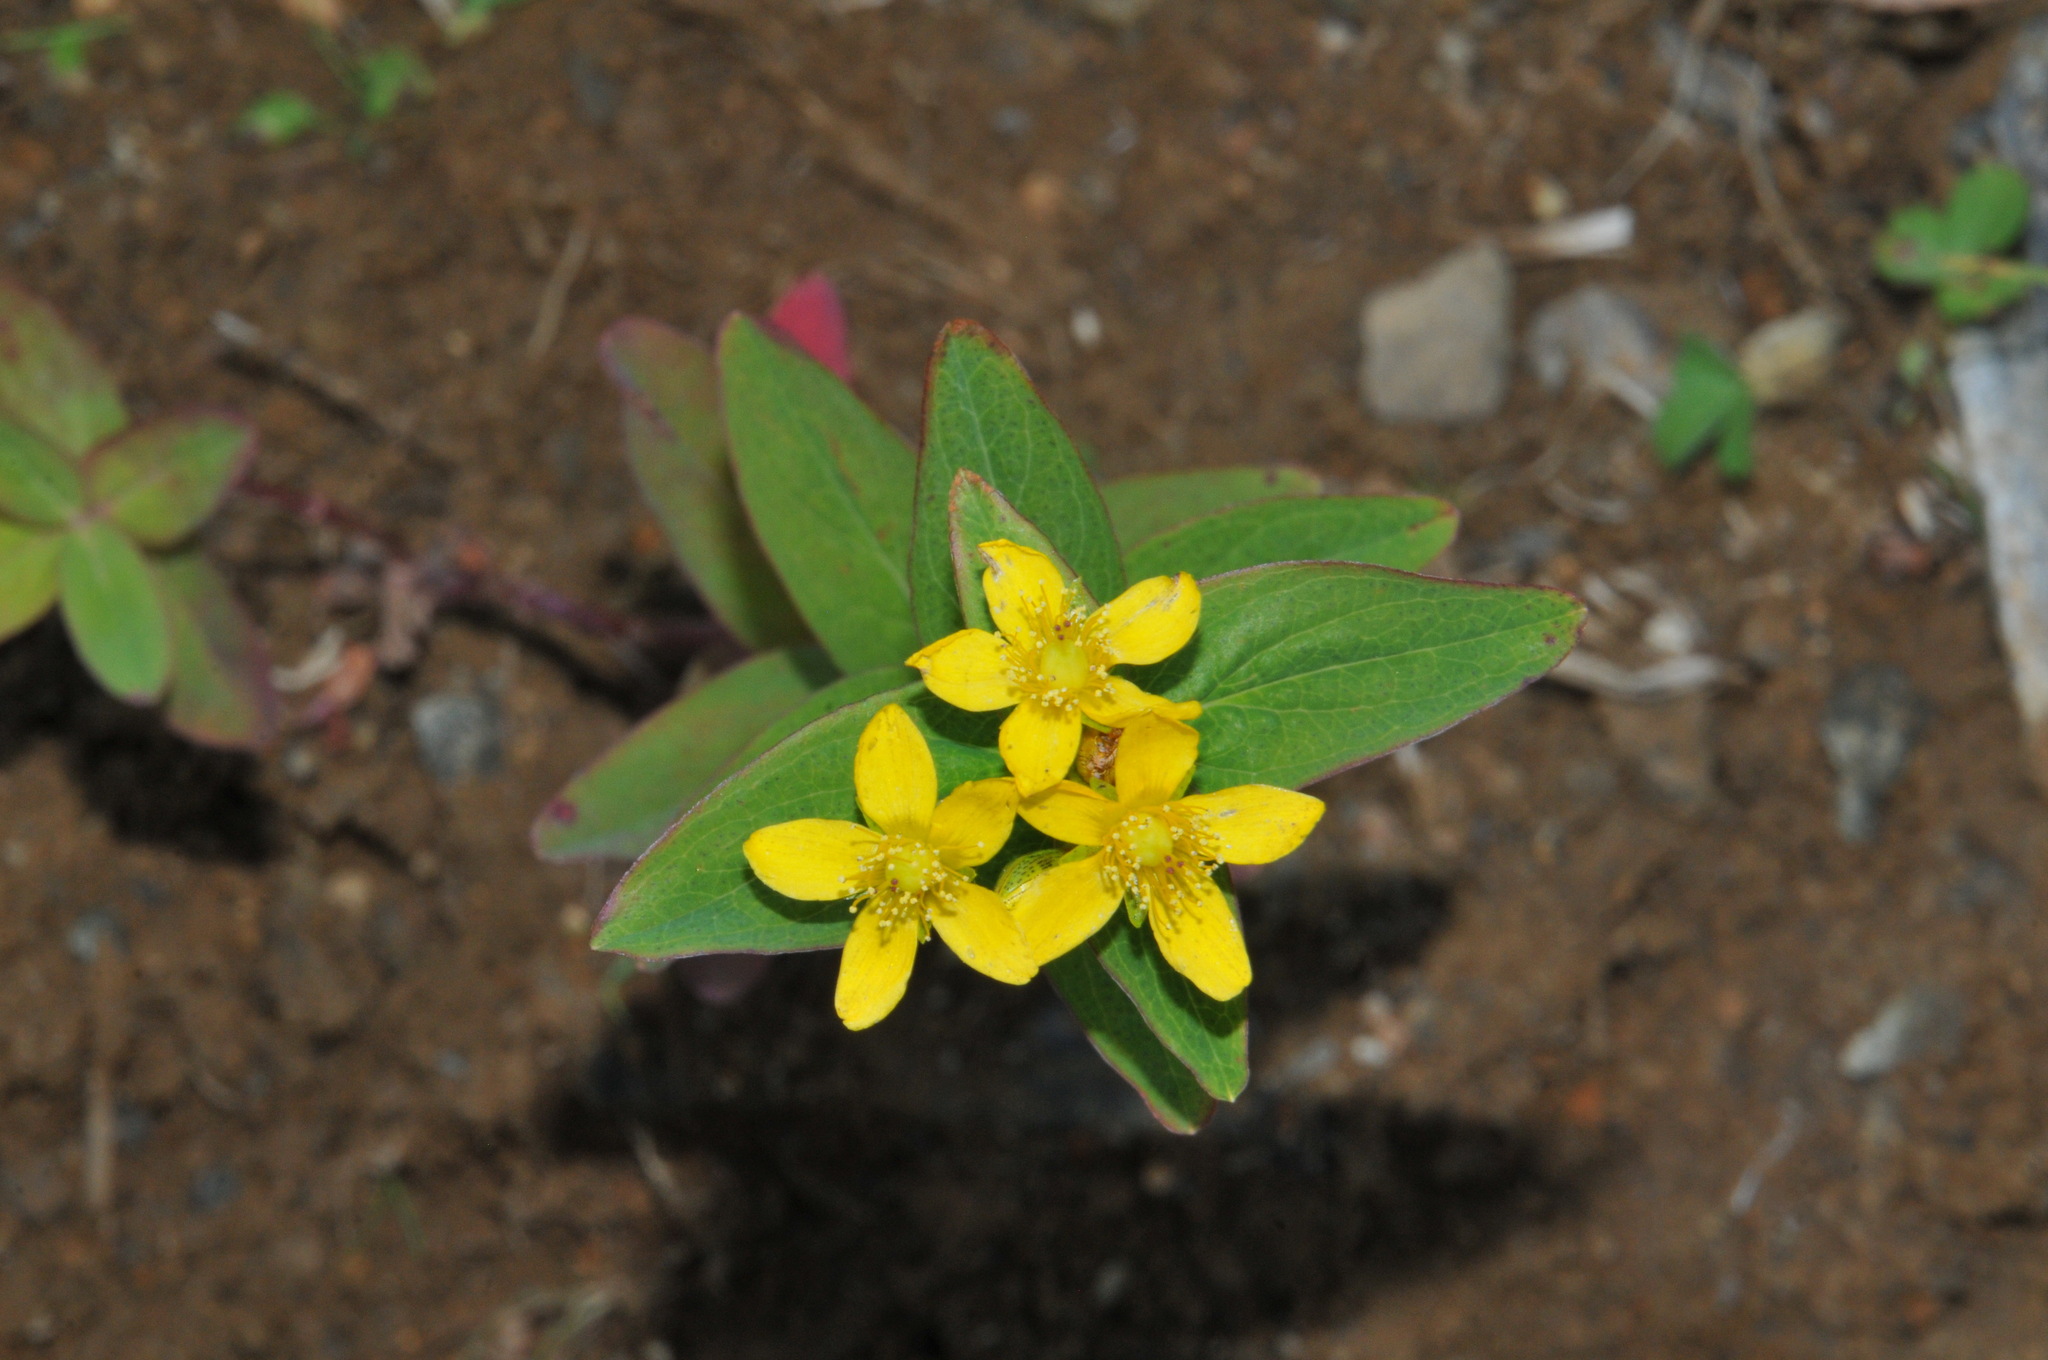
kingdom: Plantae
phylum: Tracheophyta
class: Magnoliopsida
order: Malpighiales
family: Hypericaceae
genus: Hypericum
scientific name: Hypericum mitchellianum
